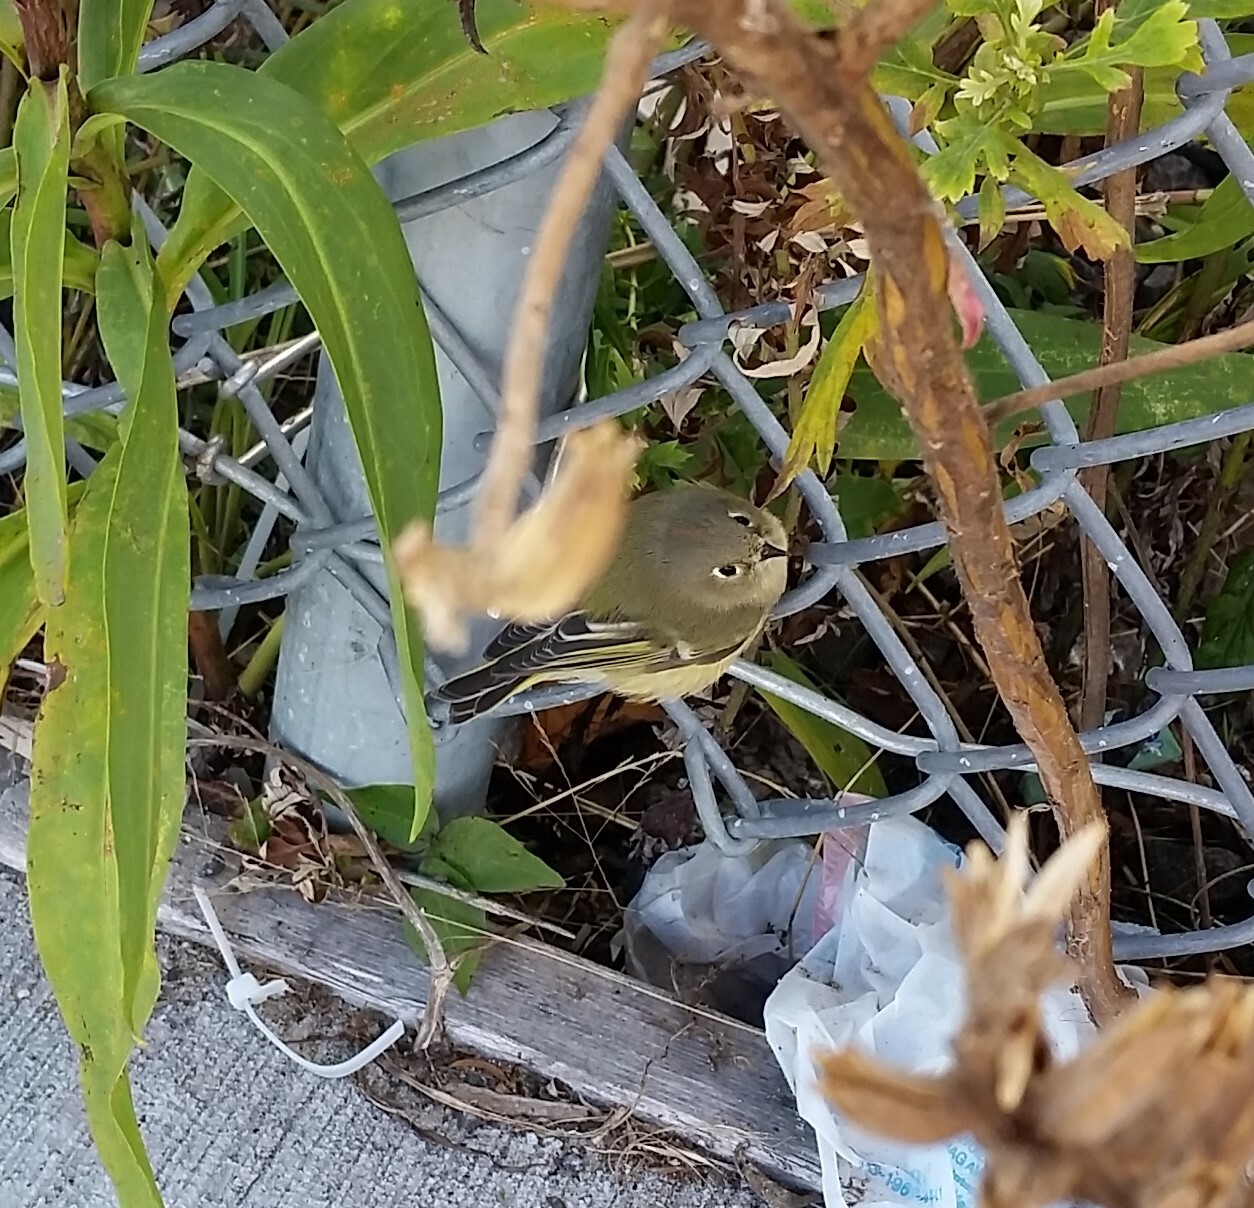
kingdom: Animalia
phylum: Chordata
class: Aves
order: Passeriformes
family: Regulidae
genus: Regulus
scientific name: Regulus calendula
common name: Ruby-crowned kinglet
